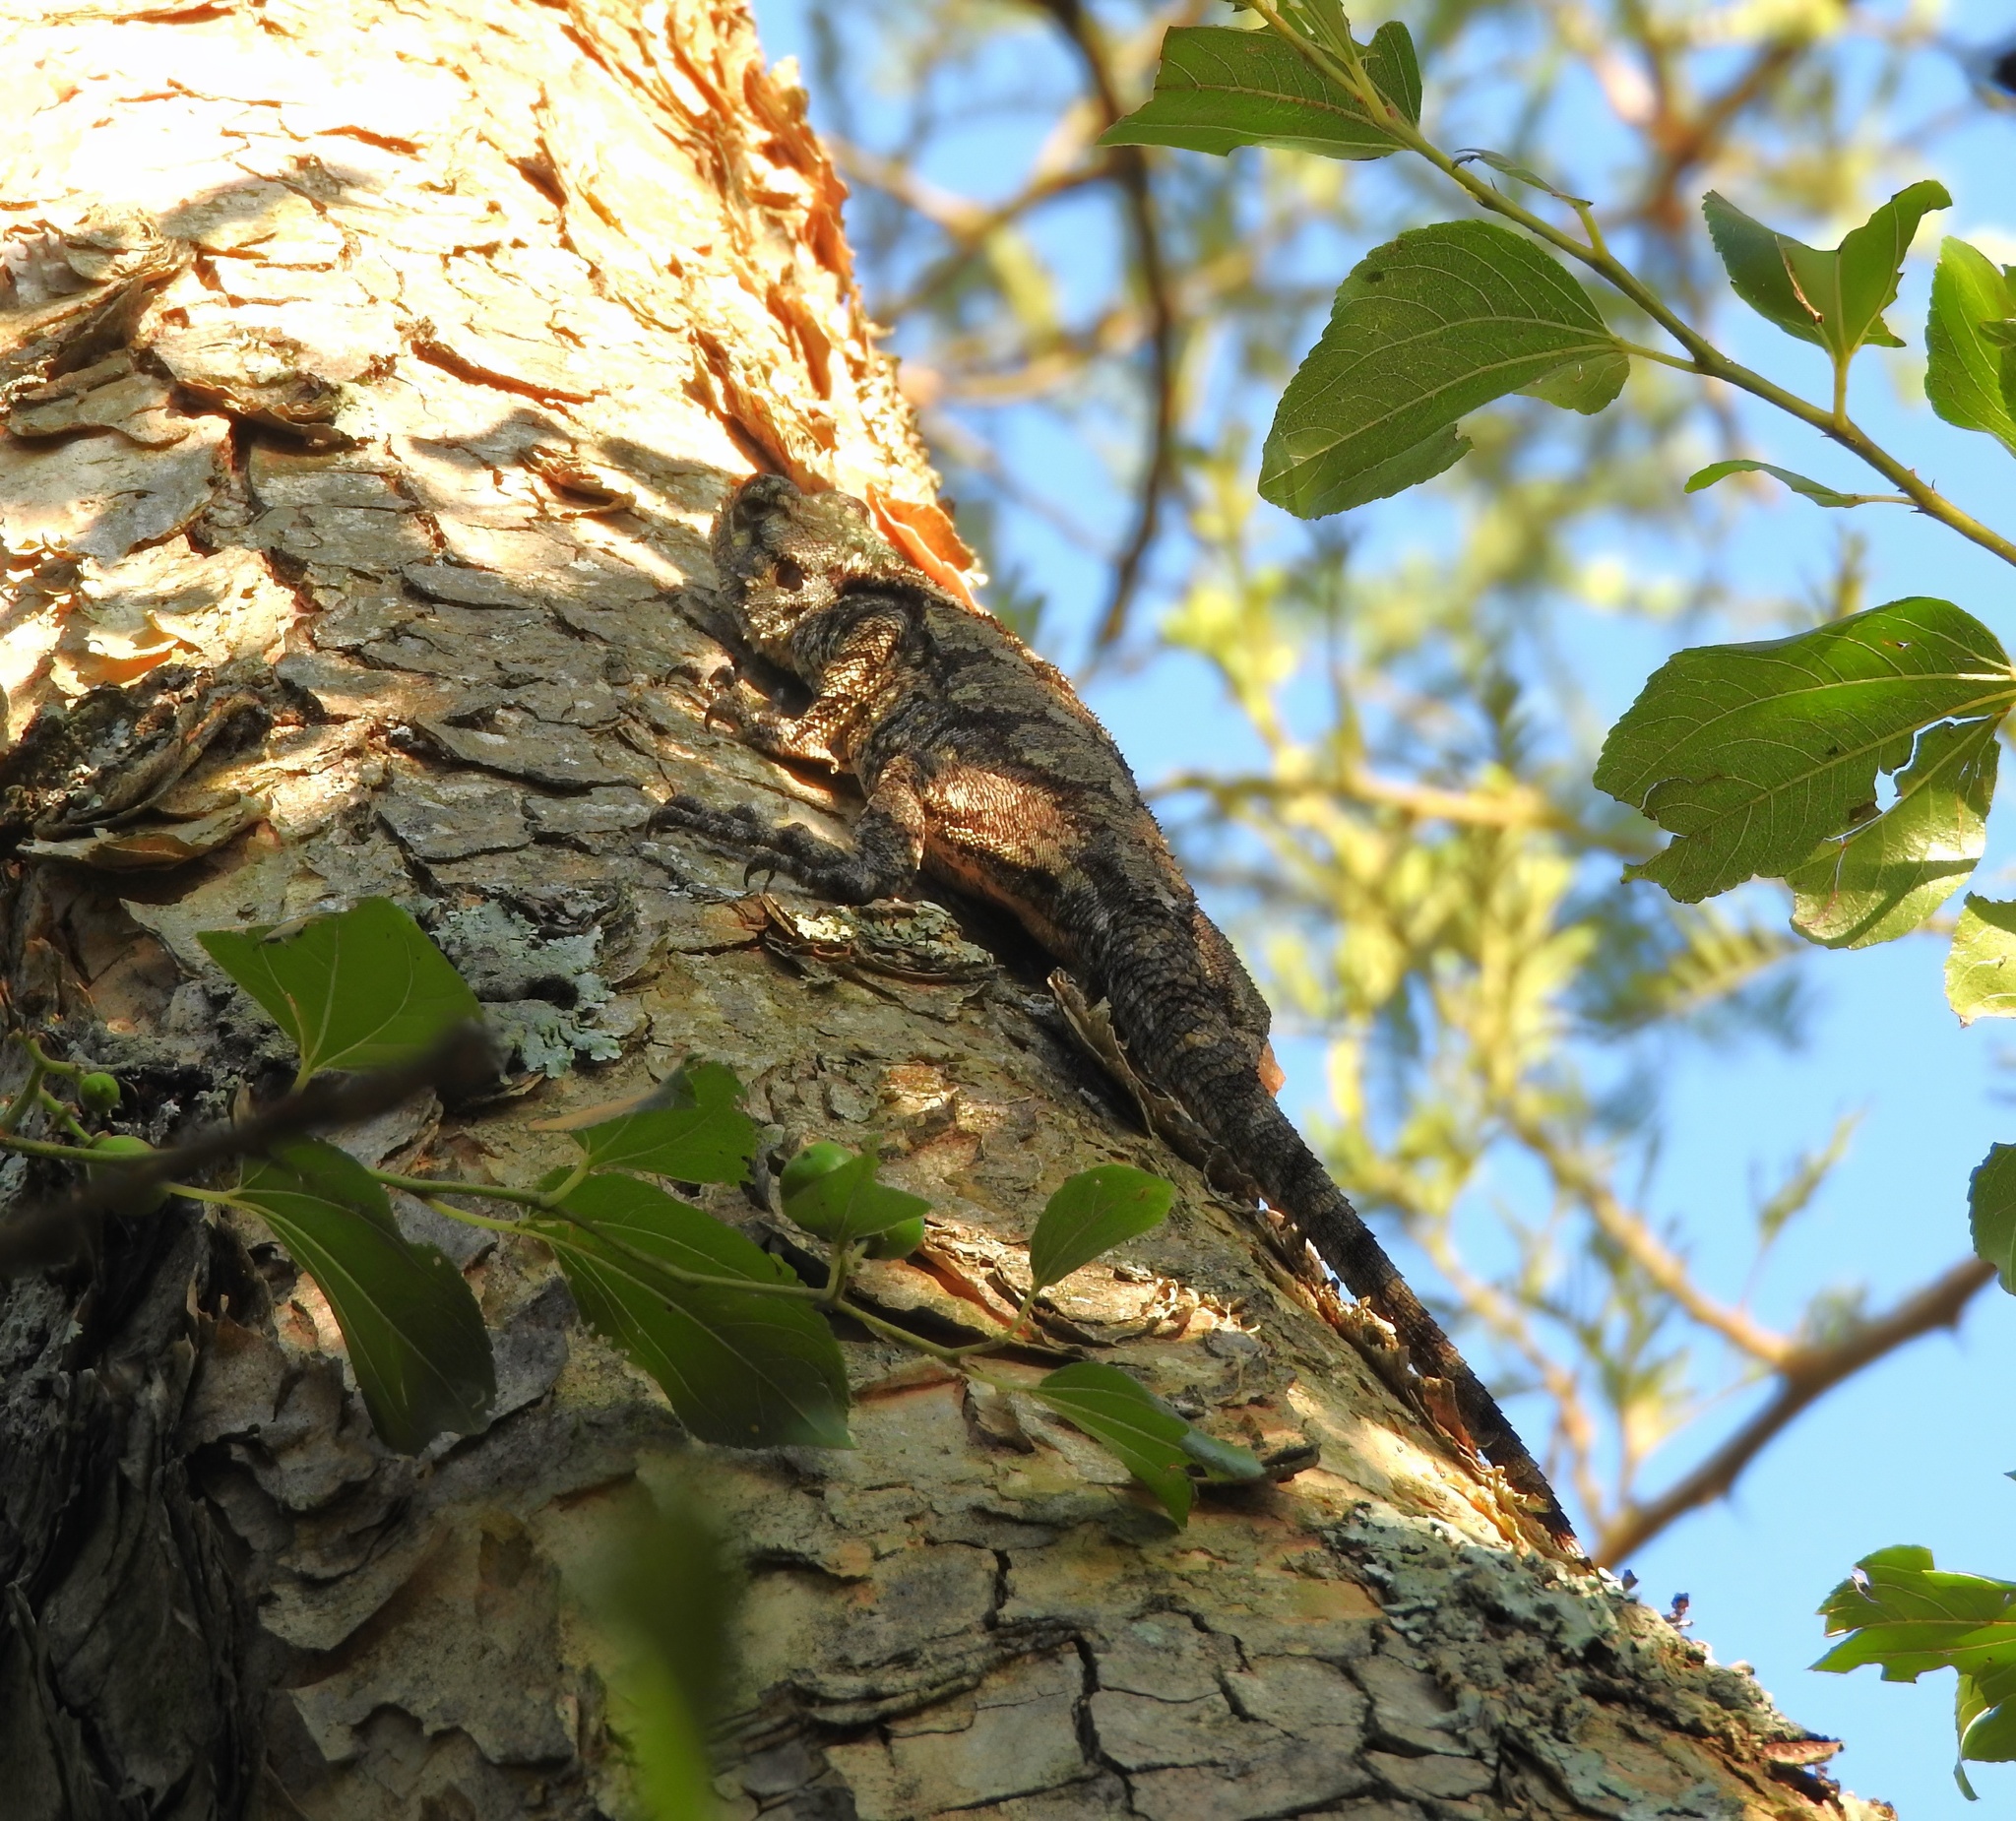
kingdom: Animalia
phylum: Chordata
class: Squamata
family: Agamidae
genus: Acanthocercus
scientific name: Acanthocercus atricollis
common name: Southern tree agama
